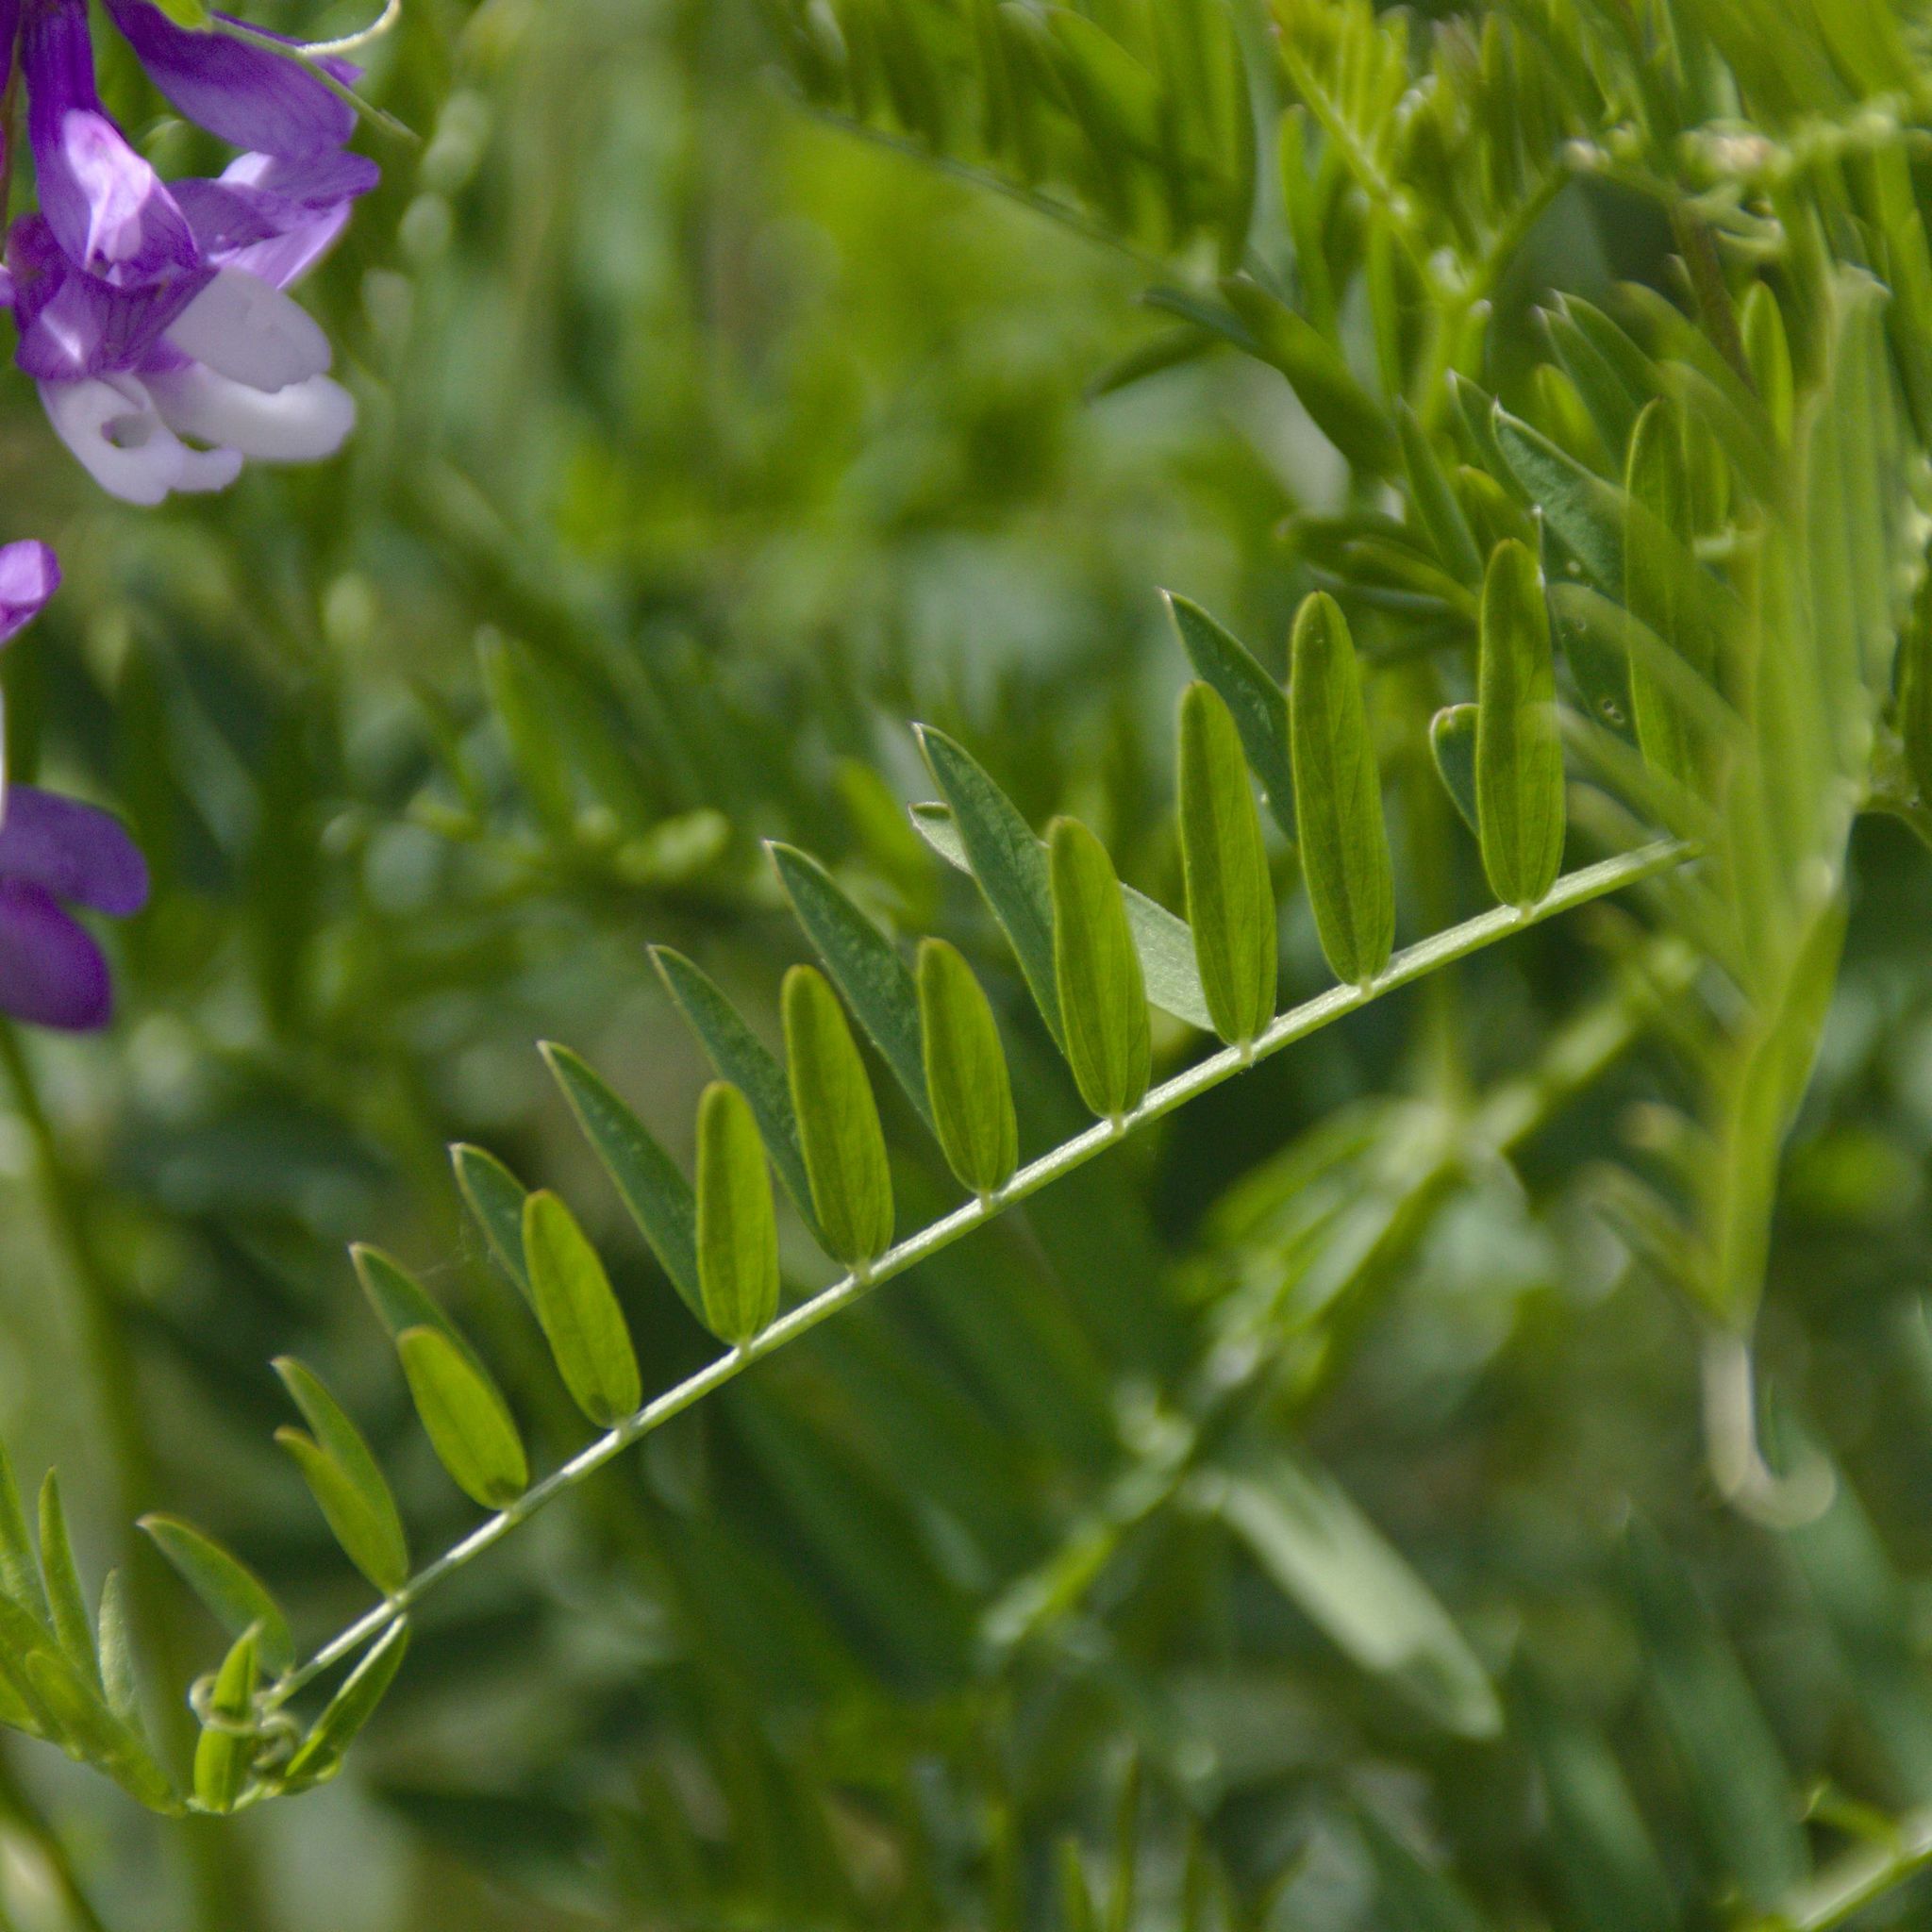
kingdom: Plantae
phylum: Tracheophyta
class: Magnoliopsida
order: Fabales
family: Fabaceae
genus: Vicia
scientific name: Vicia tenuifolia
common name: Fine-leaved vetch
